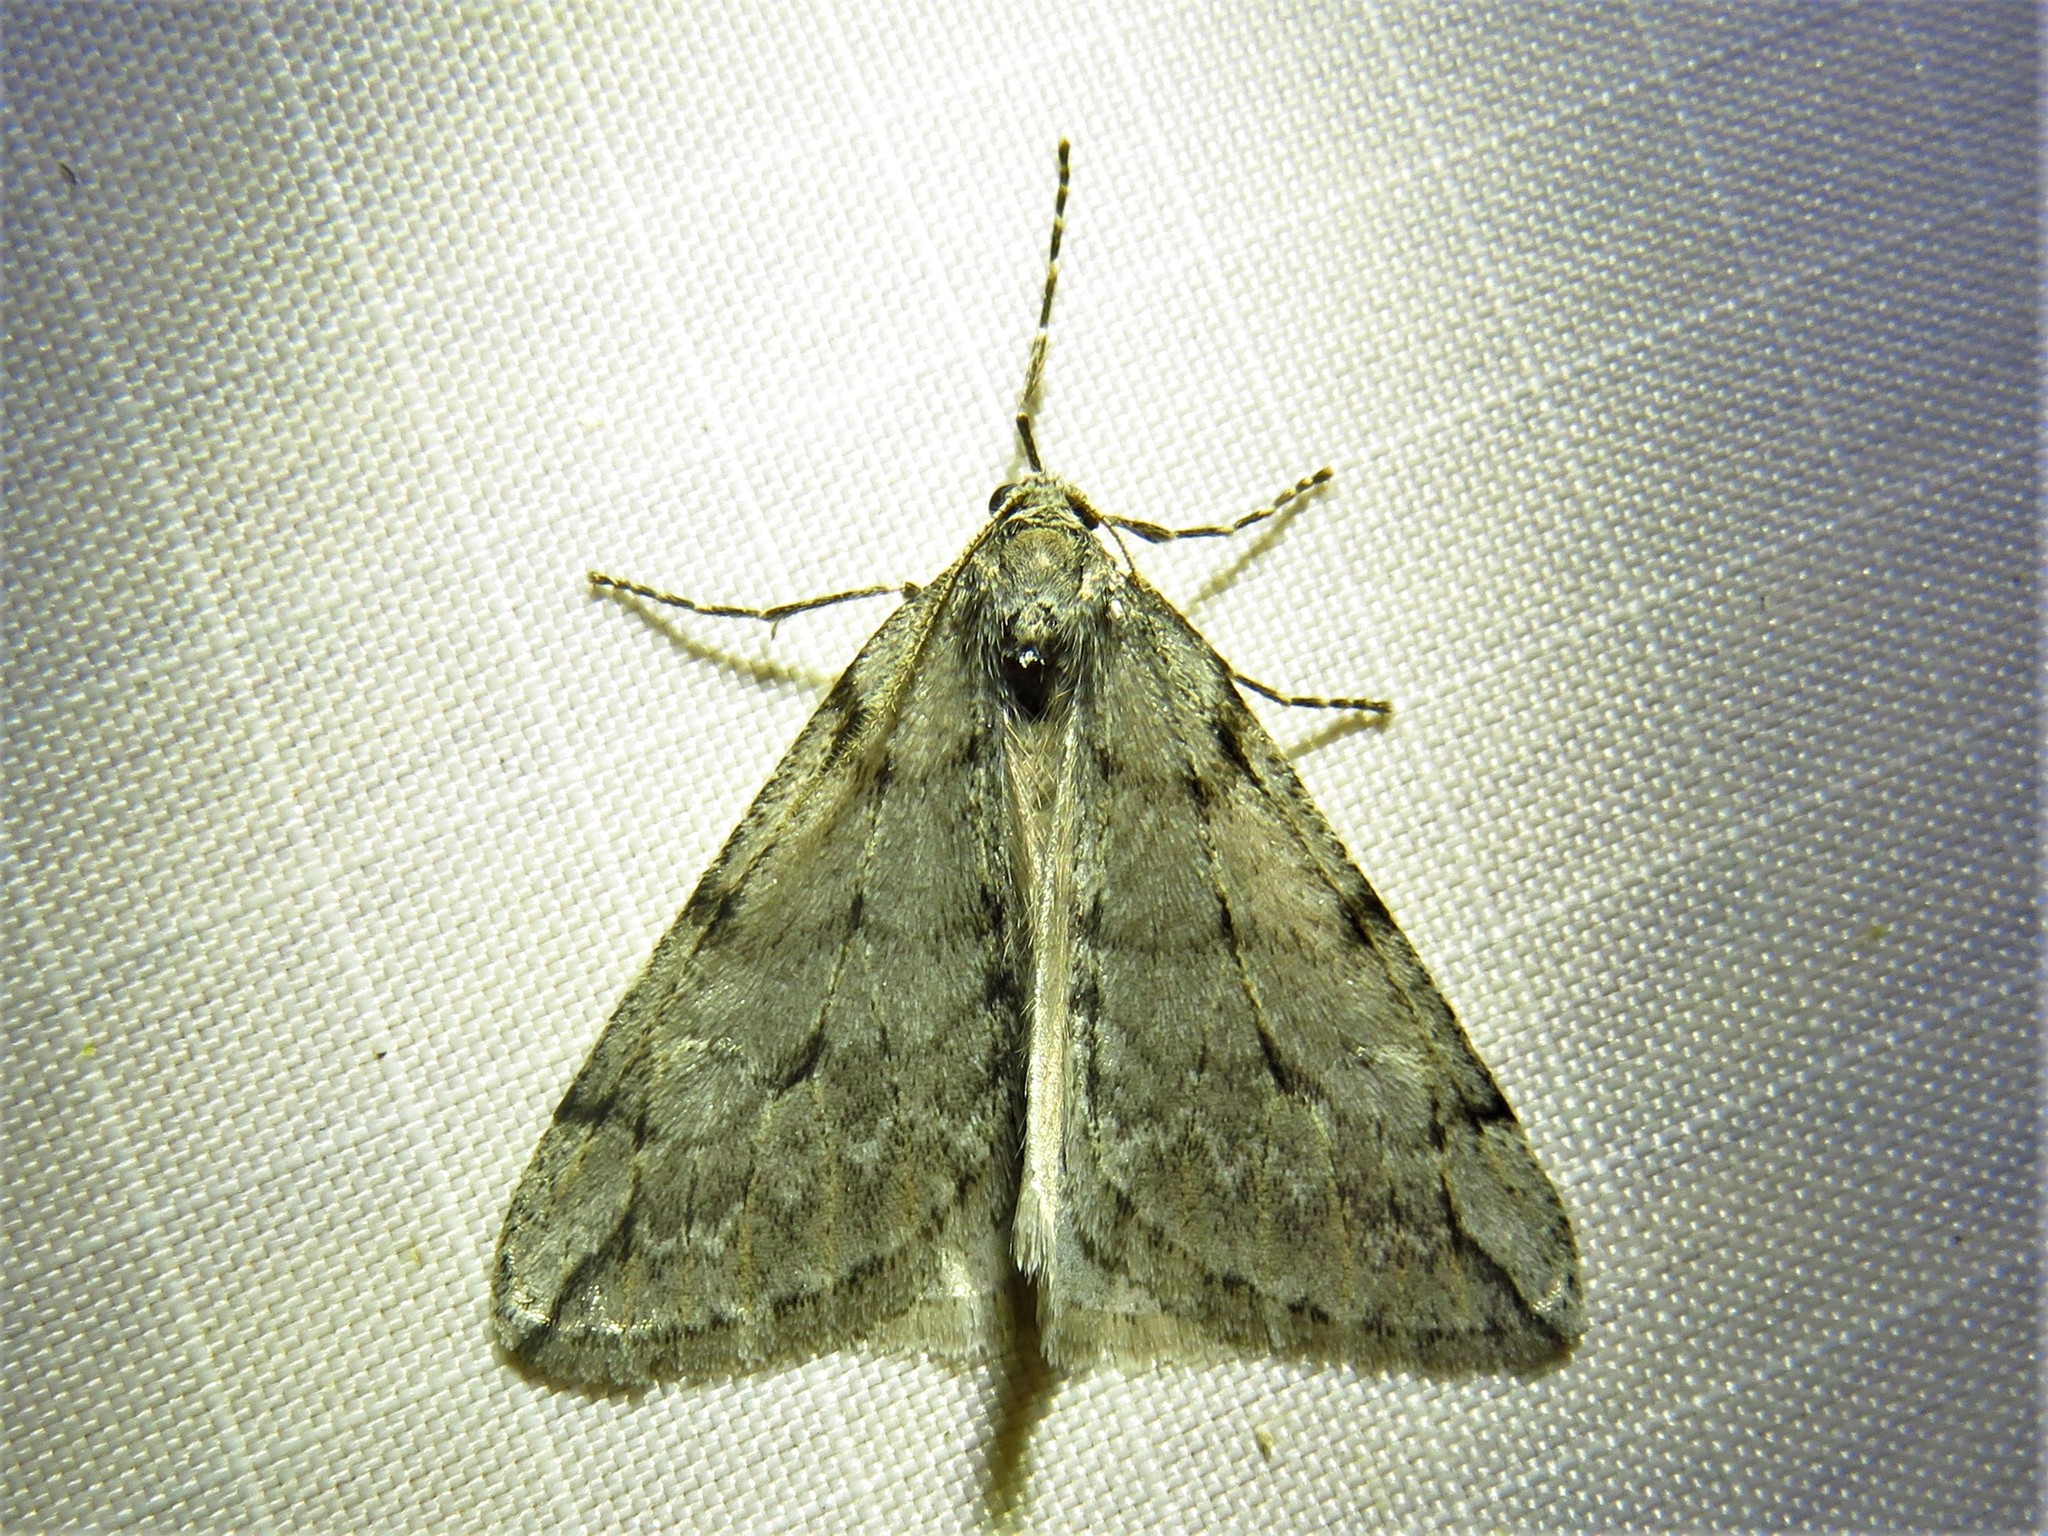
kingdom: Animalia
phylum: Arthropoda
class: Insecta
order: Lepidoptera
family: Geometridae
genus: Paleacrita
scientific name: Paleacrita vernata
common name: Spring cankerworm
